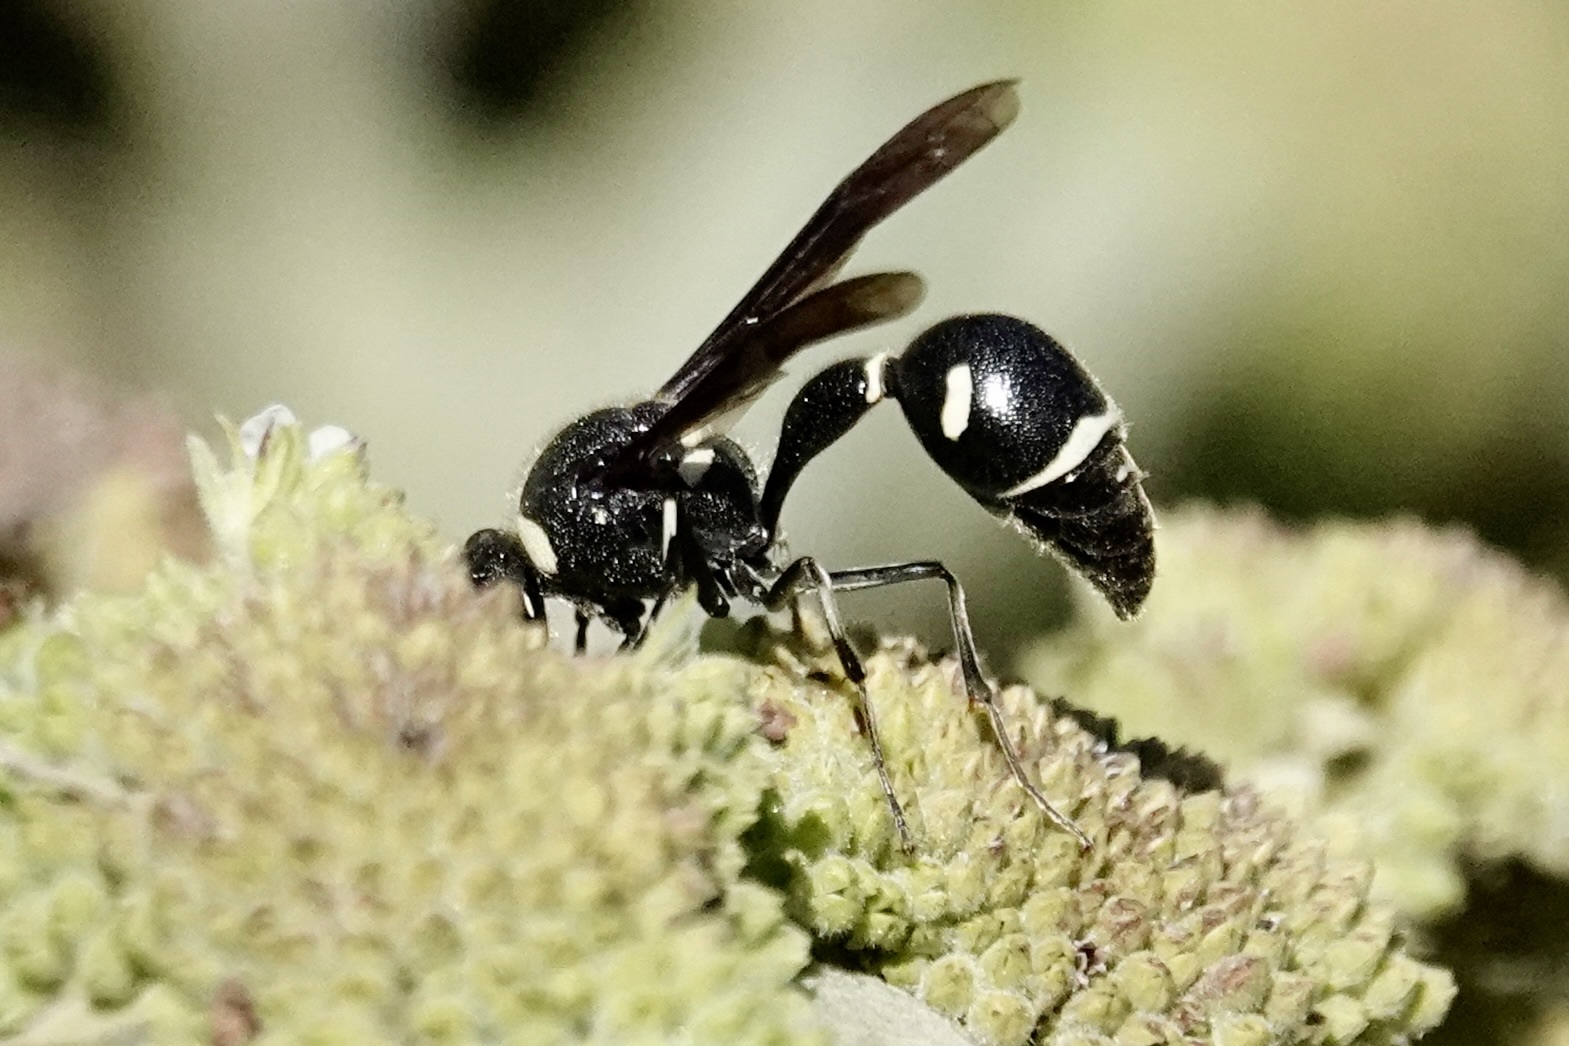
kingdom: Animalia
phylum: Arthropoda
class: Insecta
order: Hymenoptera
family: Vespidae
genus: Eumenes
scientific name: Eumenes fraternus
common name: Fraternal potter wasp
